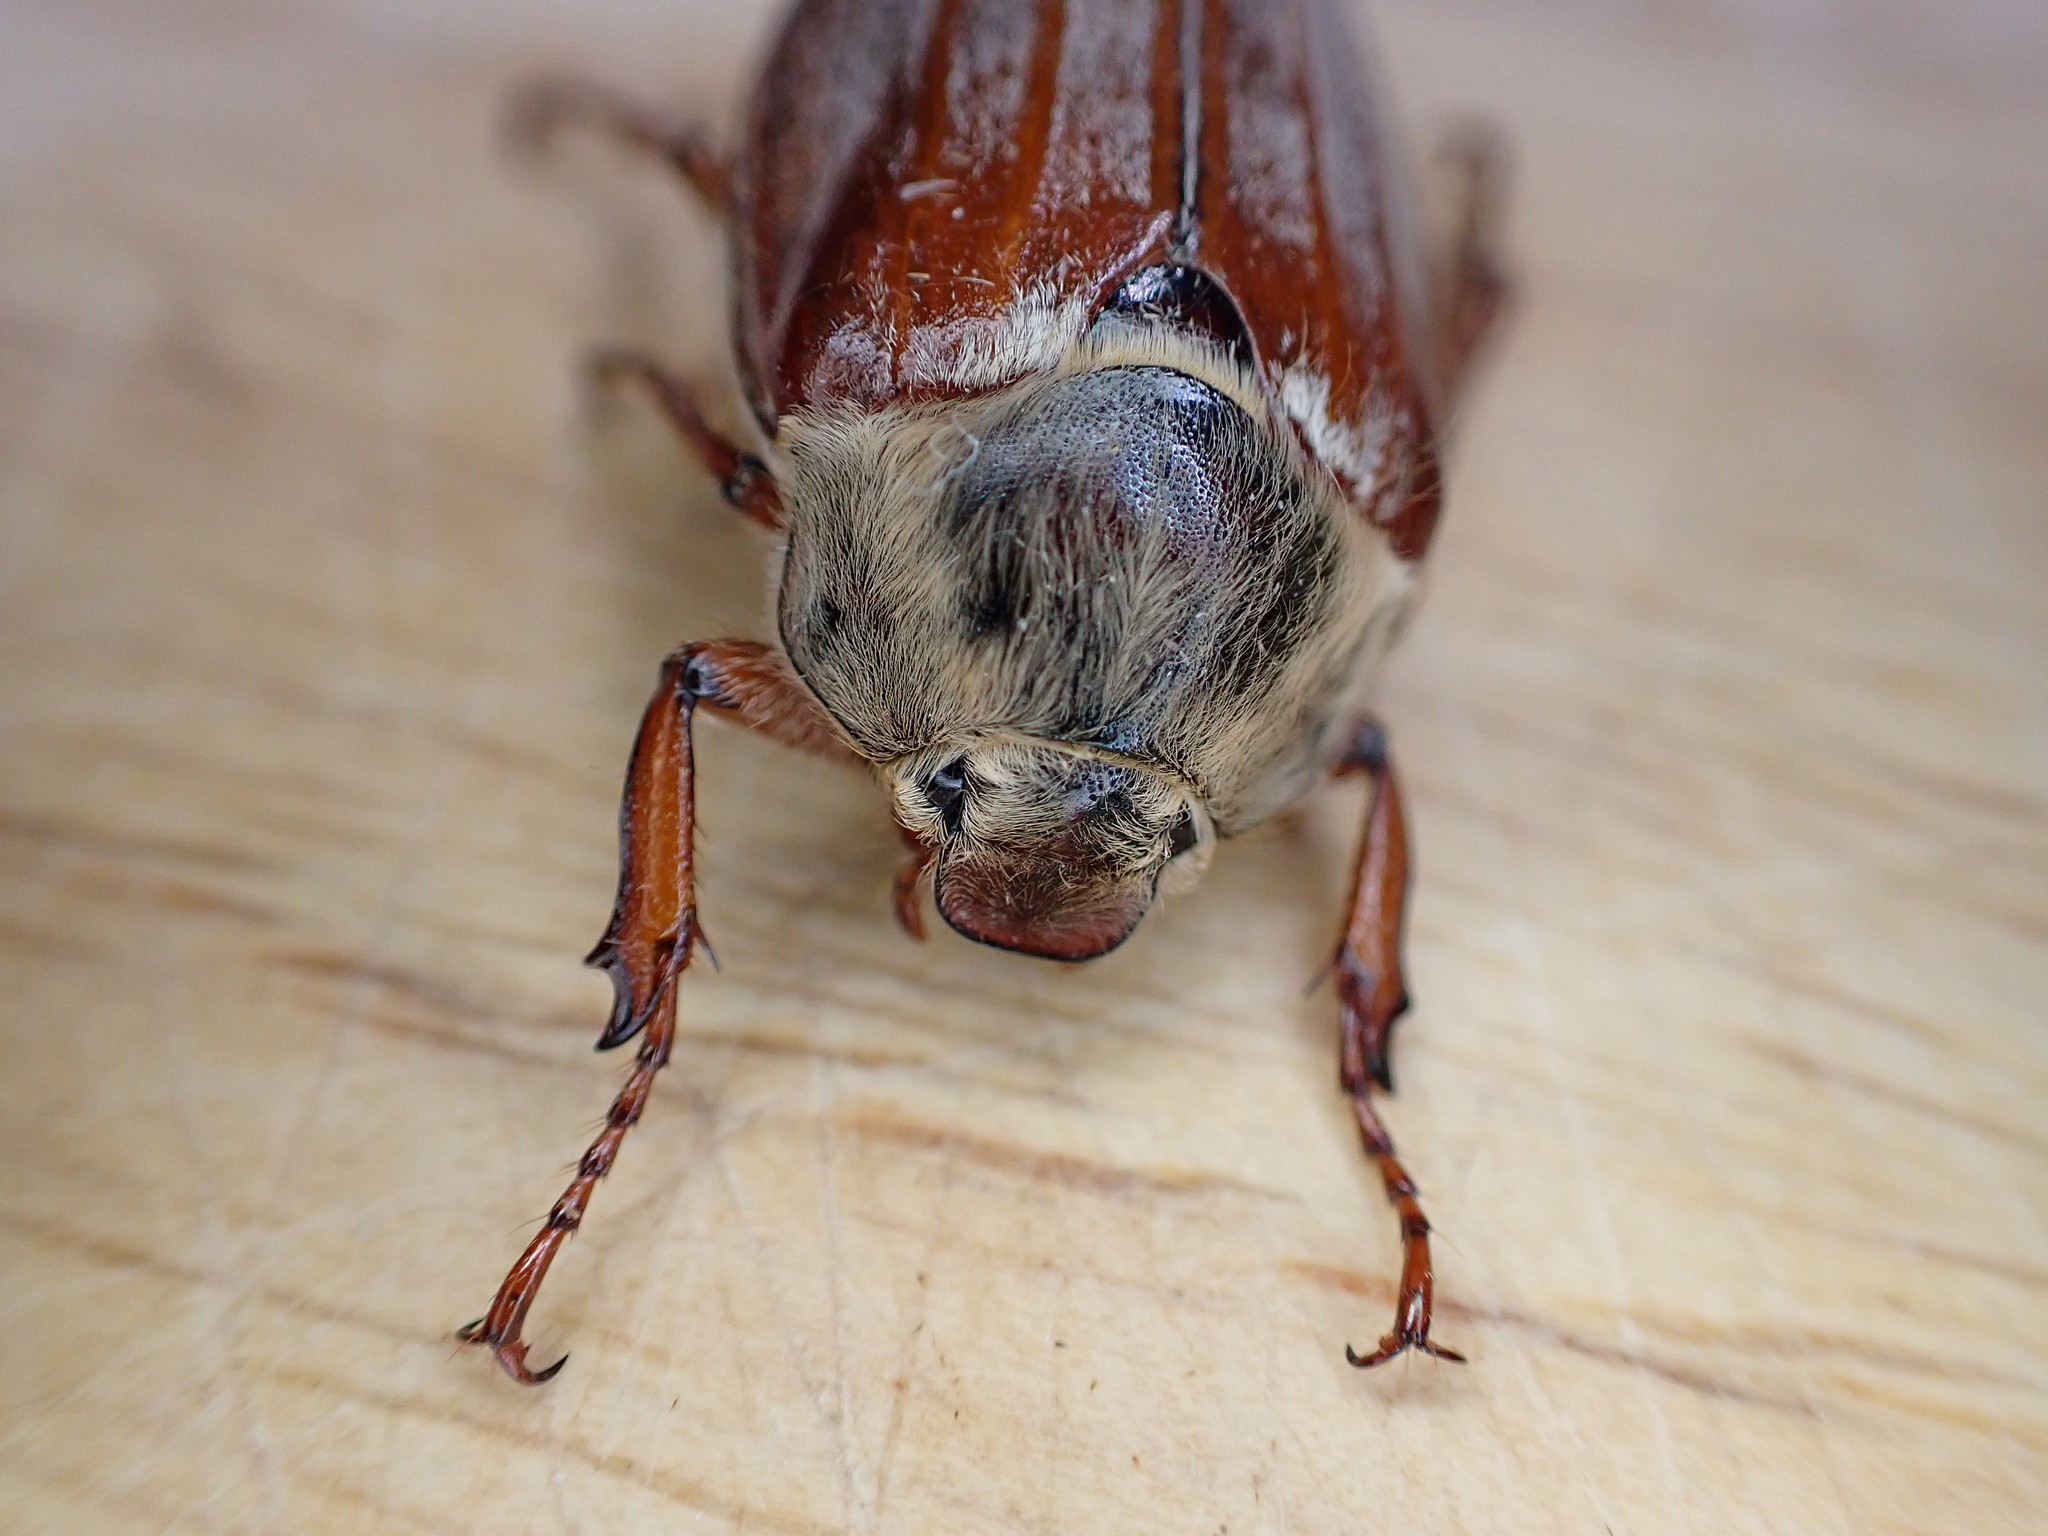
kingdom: Animalia
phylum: Arthropoda
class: Insecta
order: Coleoptera
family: Scarabaeidae
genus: Melolontha
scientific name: Melolontha melolontha
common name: Cockchafer maybeetle
